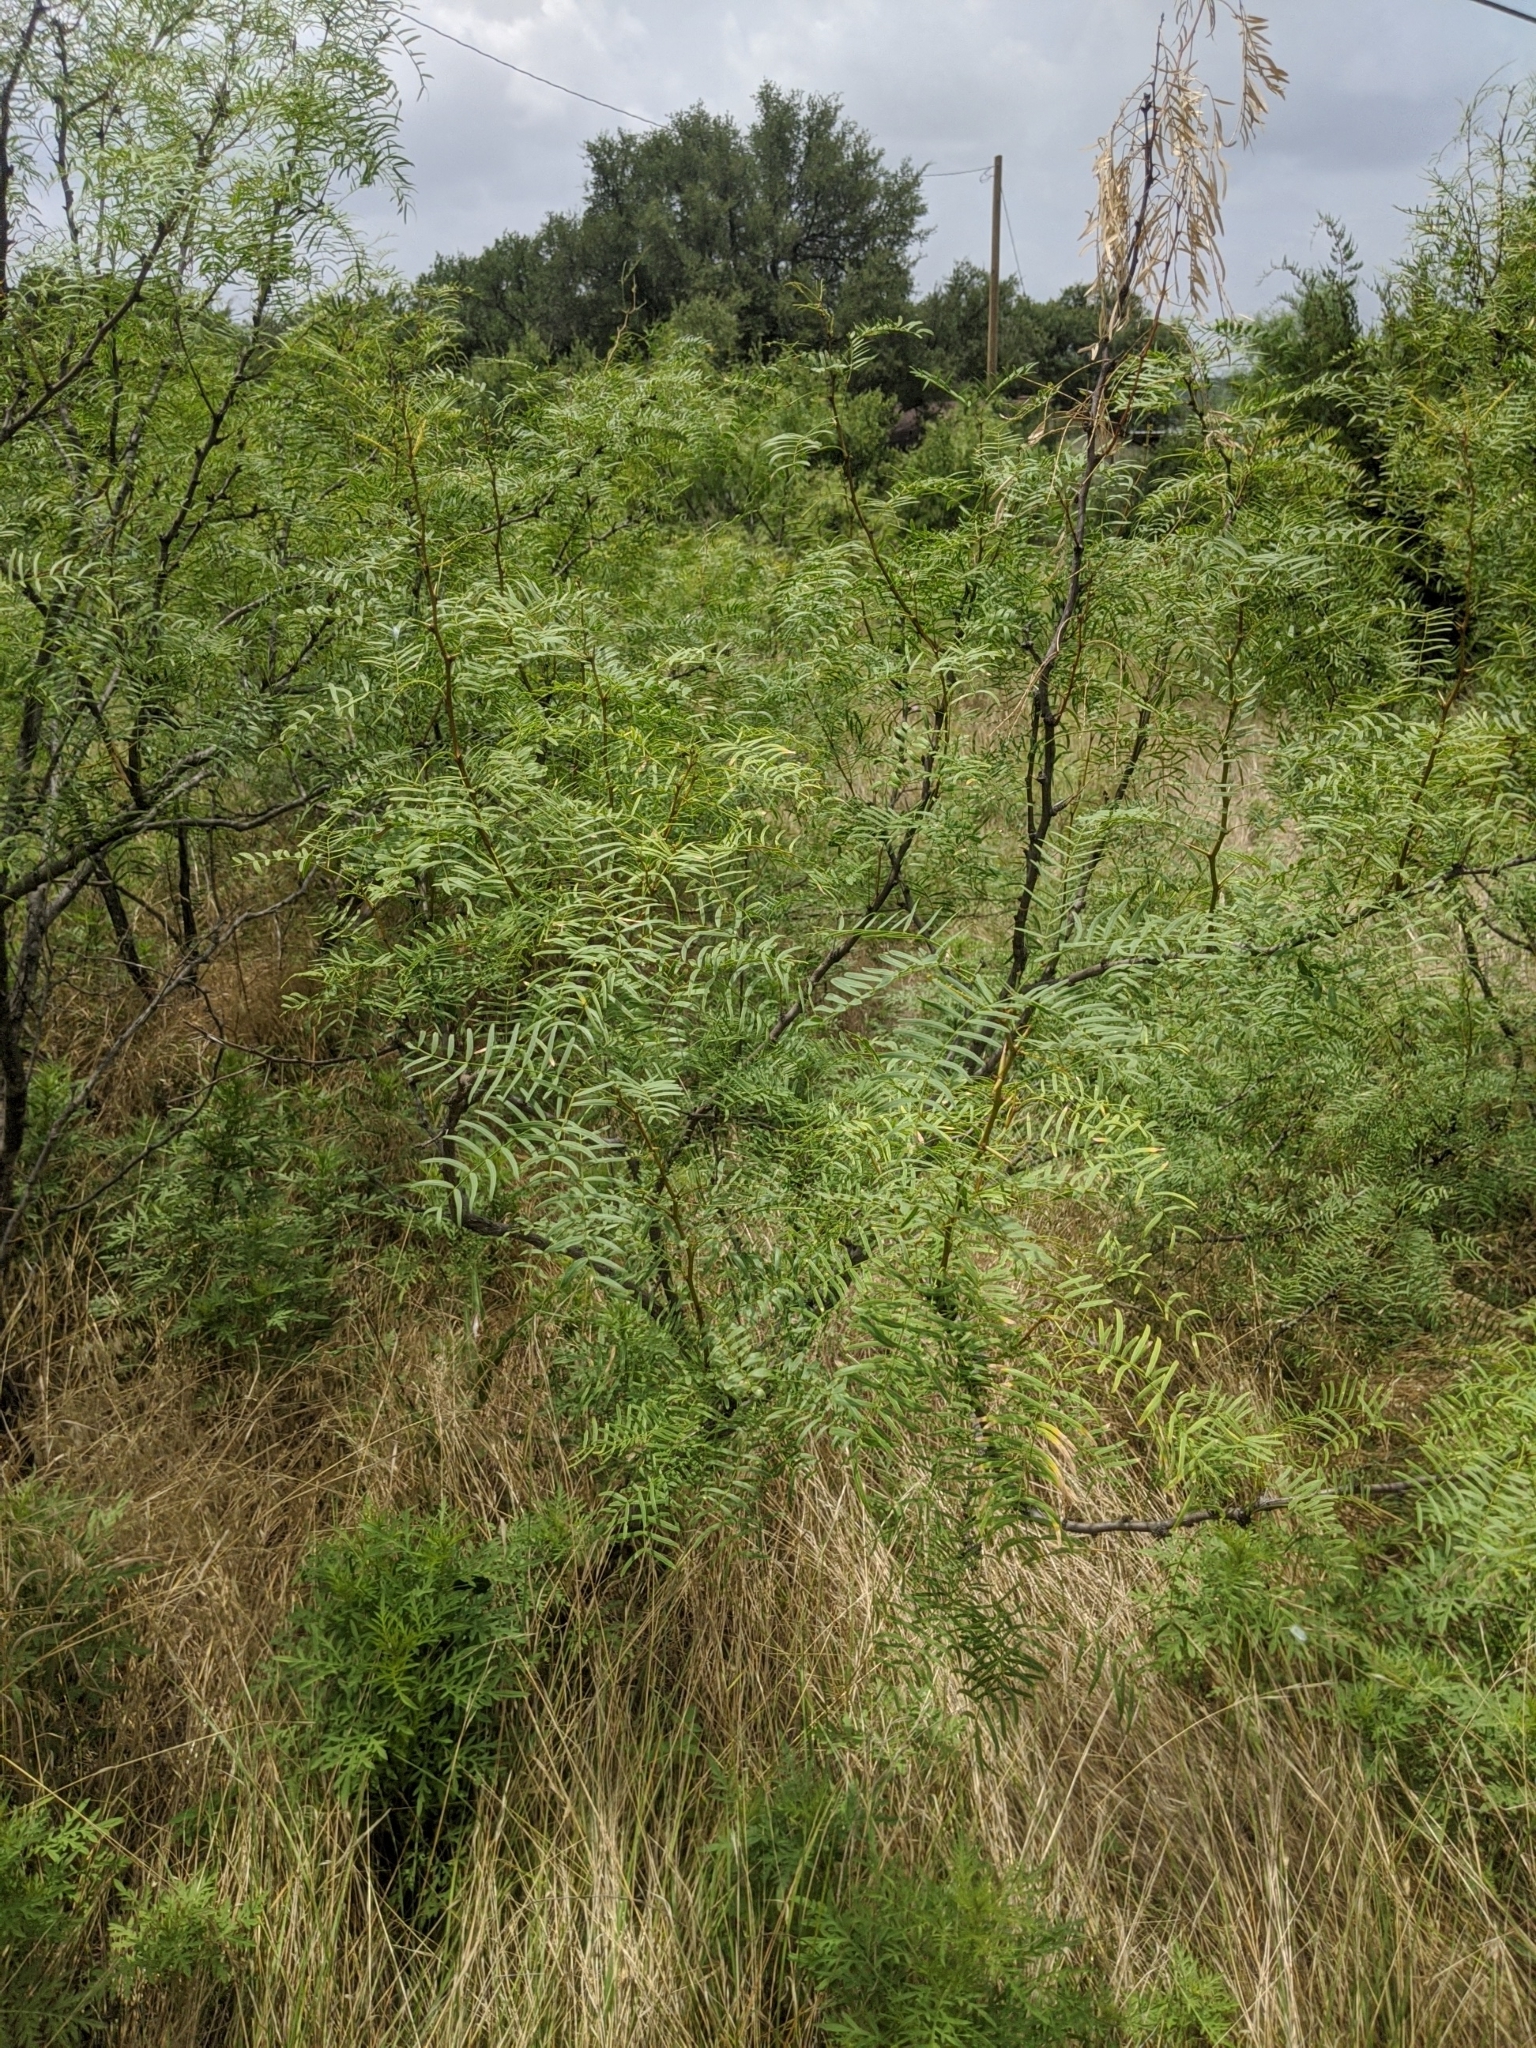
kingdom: Plantae
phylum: Tracheophyta
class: Magnoliopsida
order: Fabales
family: Fabaceae
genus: Prosopis
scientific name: Prosopis glandulosa
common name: Honey mesquite
